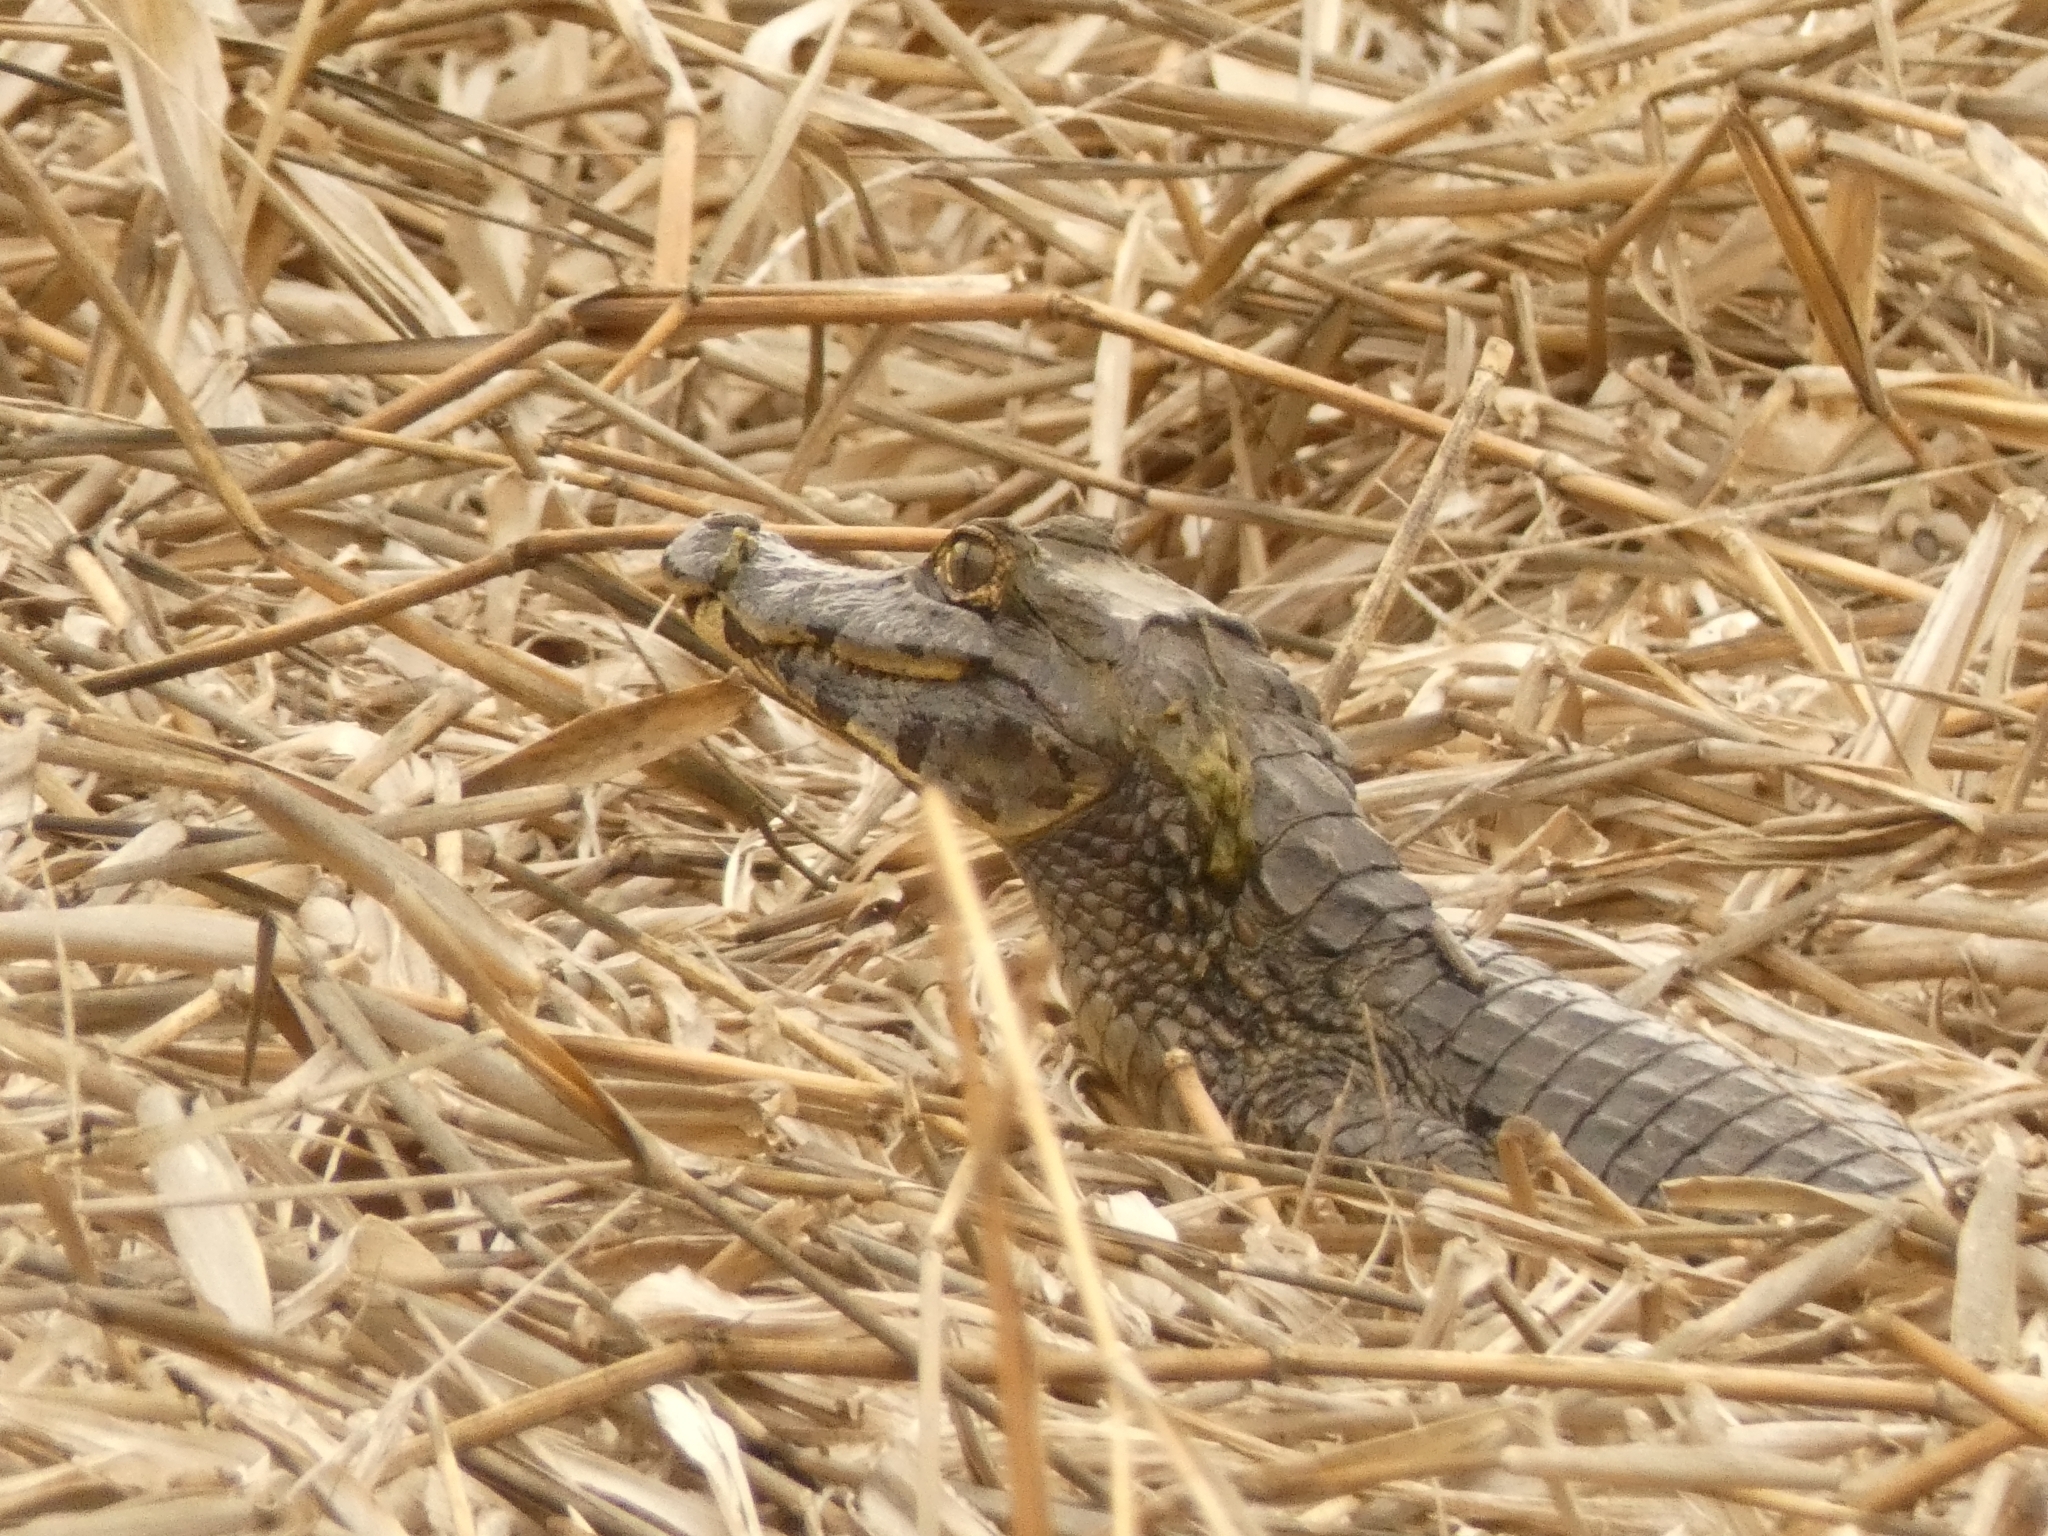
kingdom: Animalia
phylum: Chordata
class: Crocodylia
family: Alligatoridae
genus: Caiman
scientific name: Caiman yacare
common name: Yacare caiman
